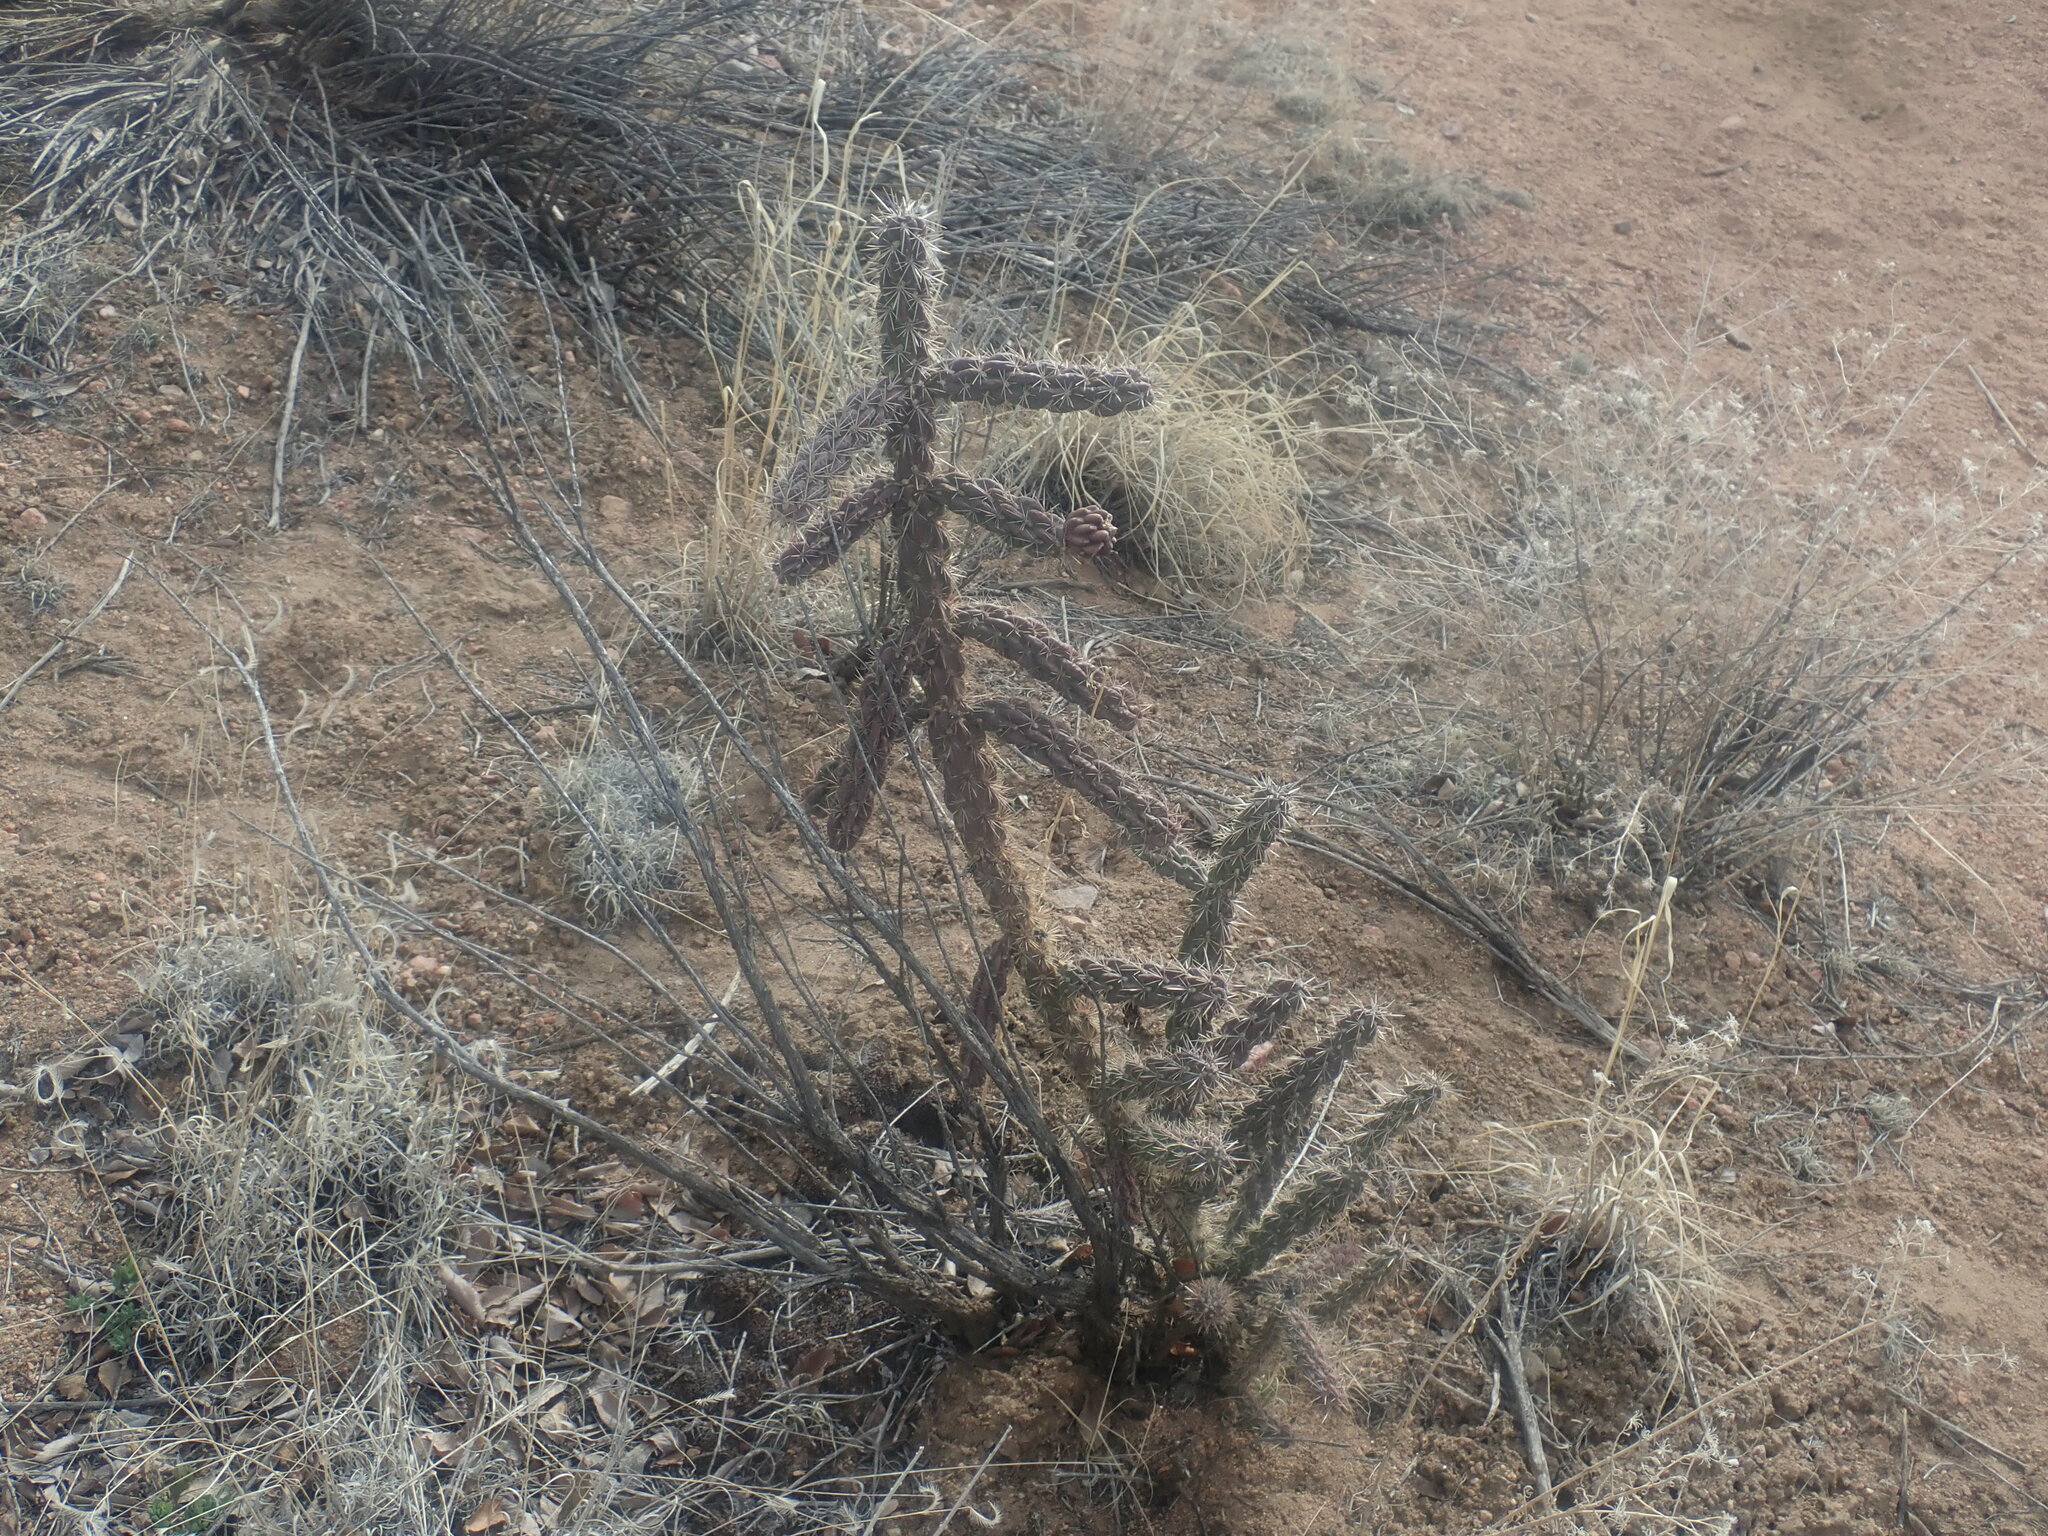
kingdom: Plantae
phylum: Tracheophyta
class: Magnoliopsida
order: Caryophyllales
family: Cactaceae
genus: Cylindropuntia
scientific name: Cylindropuntia imbricata
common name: Candelabrum cactus
